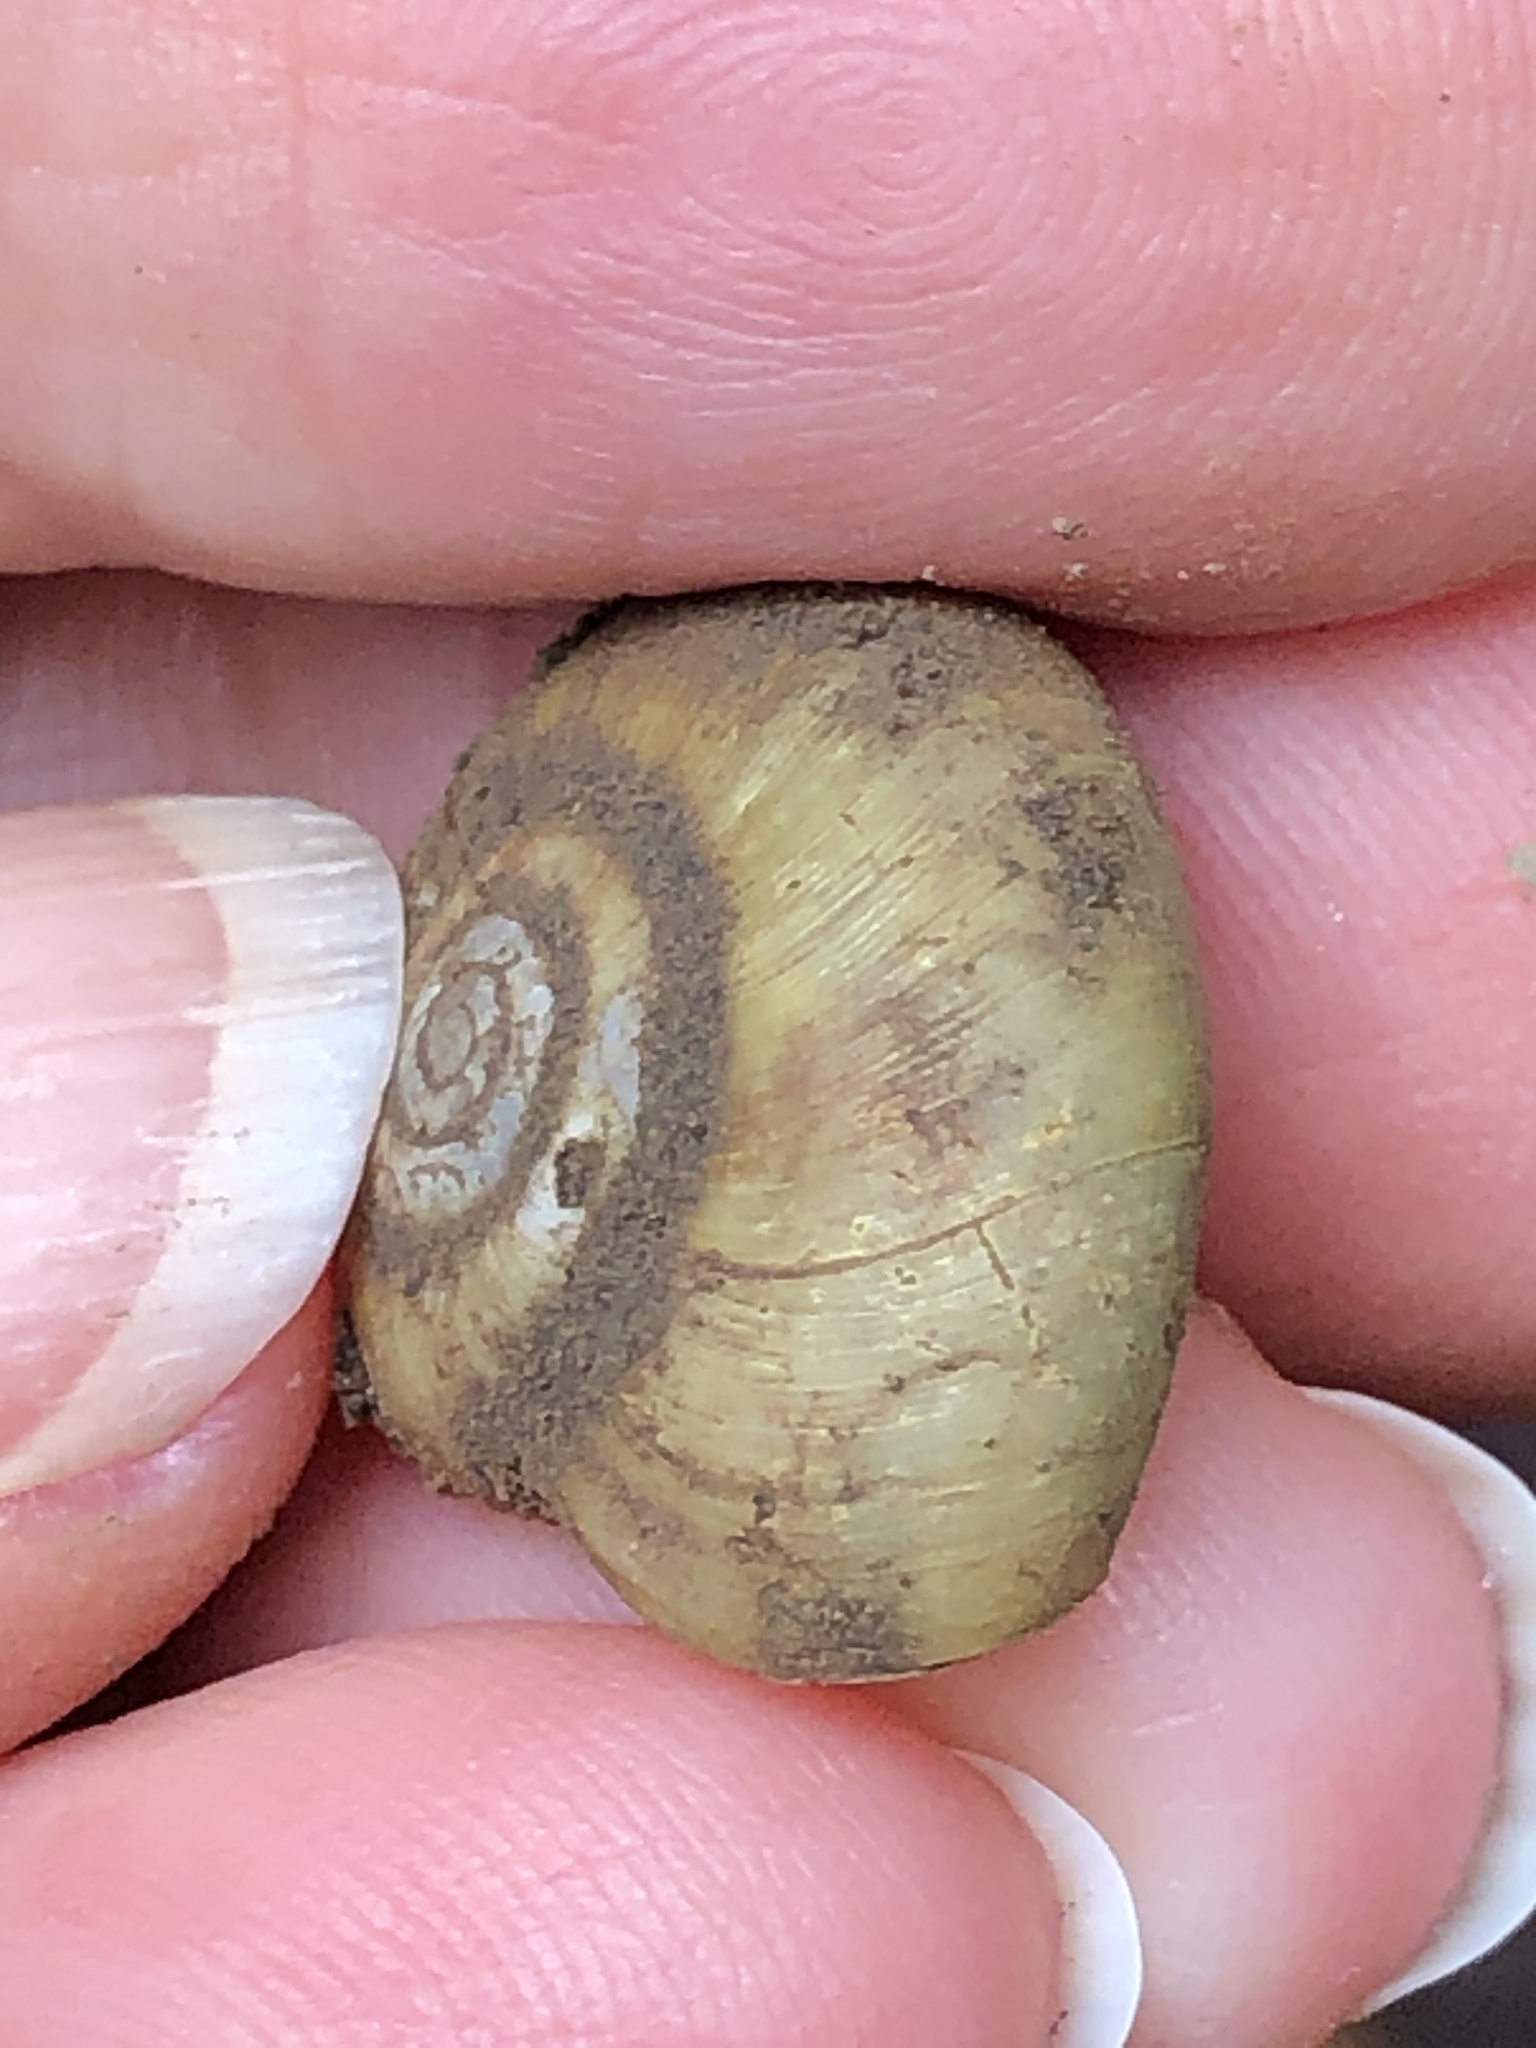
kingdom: Animalia
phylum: Mollusca
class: Gastropoda
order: Stylommatophora
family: Haplotrematidae
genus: Haplotrema
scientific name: Haplotrema minimum
